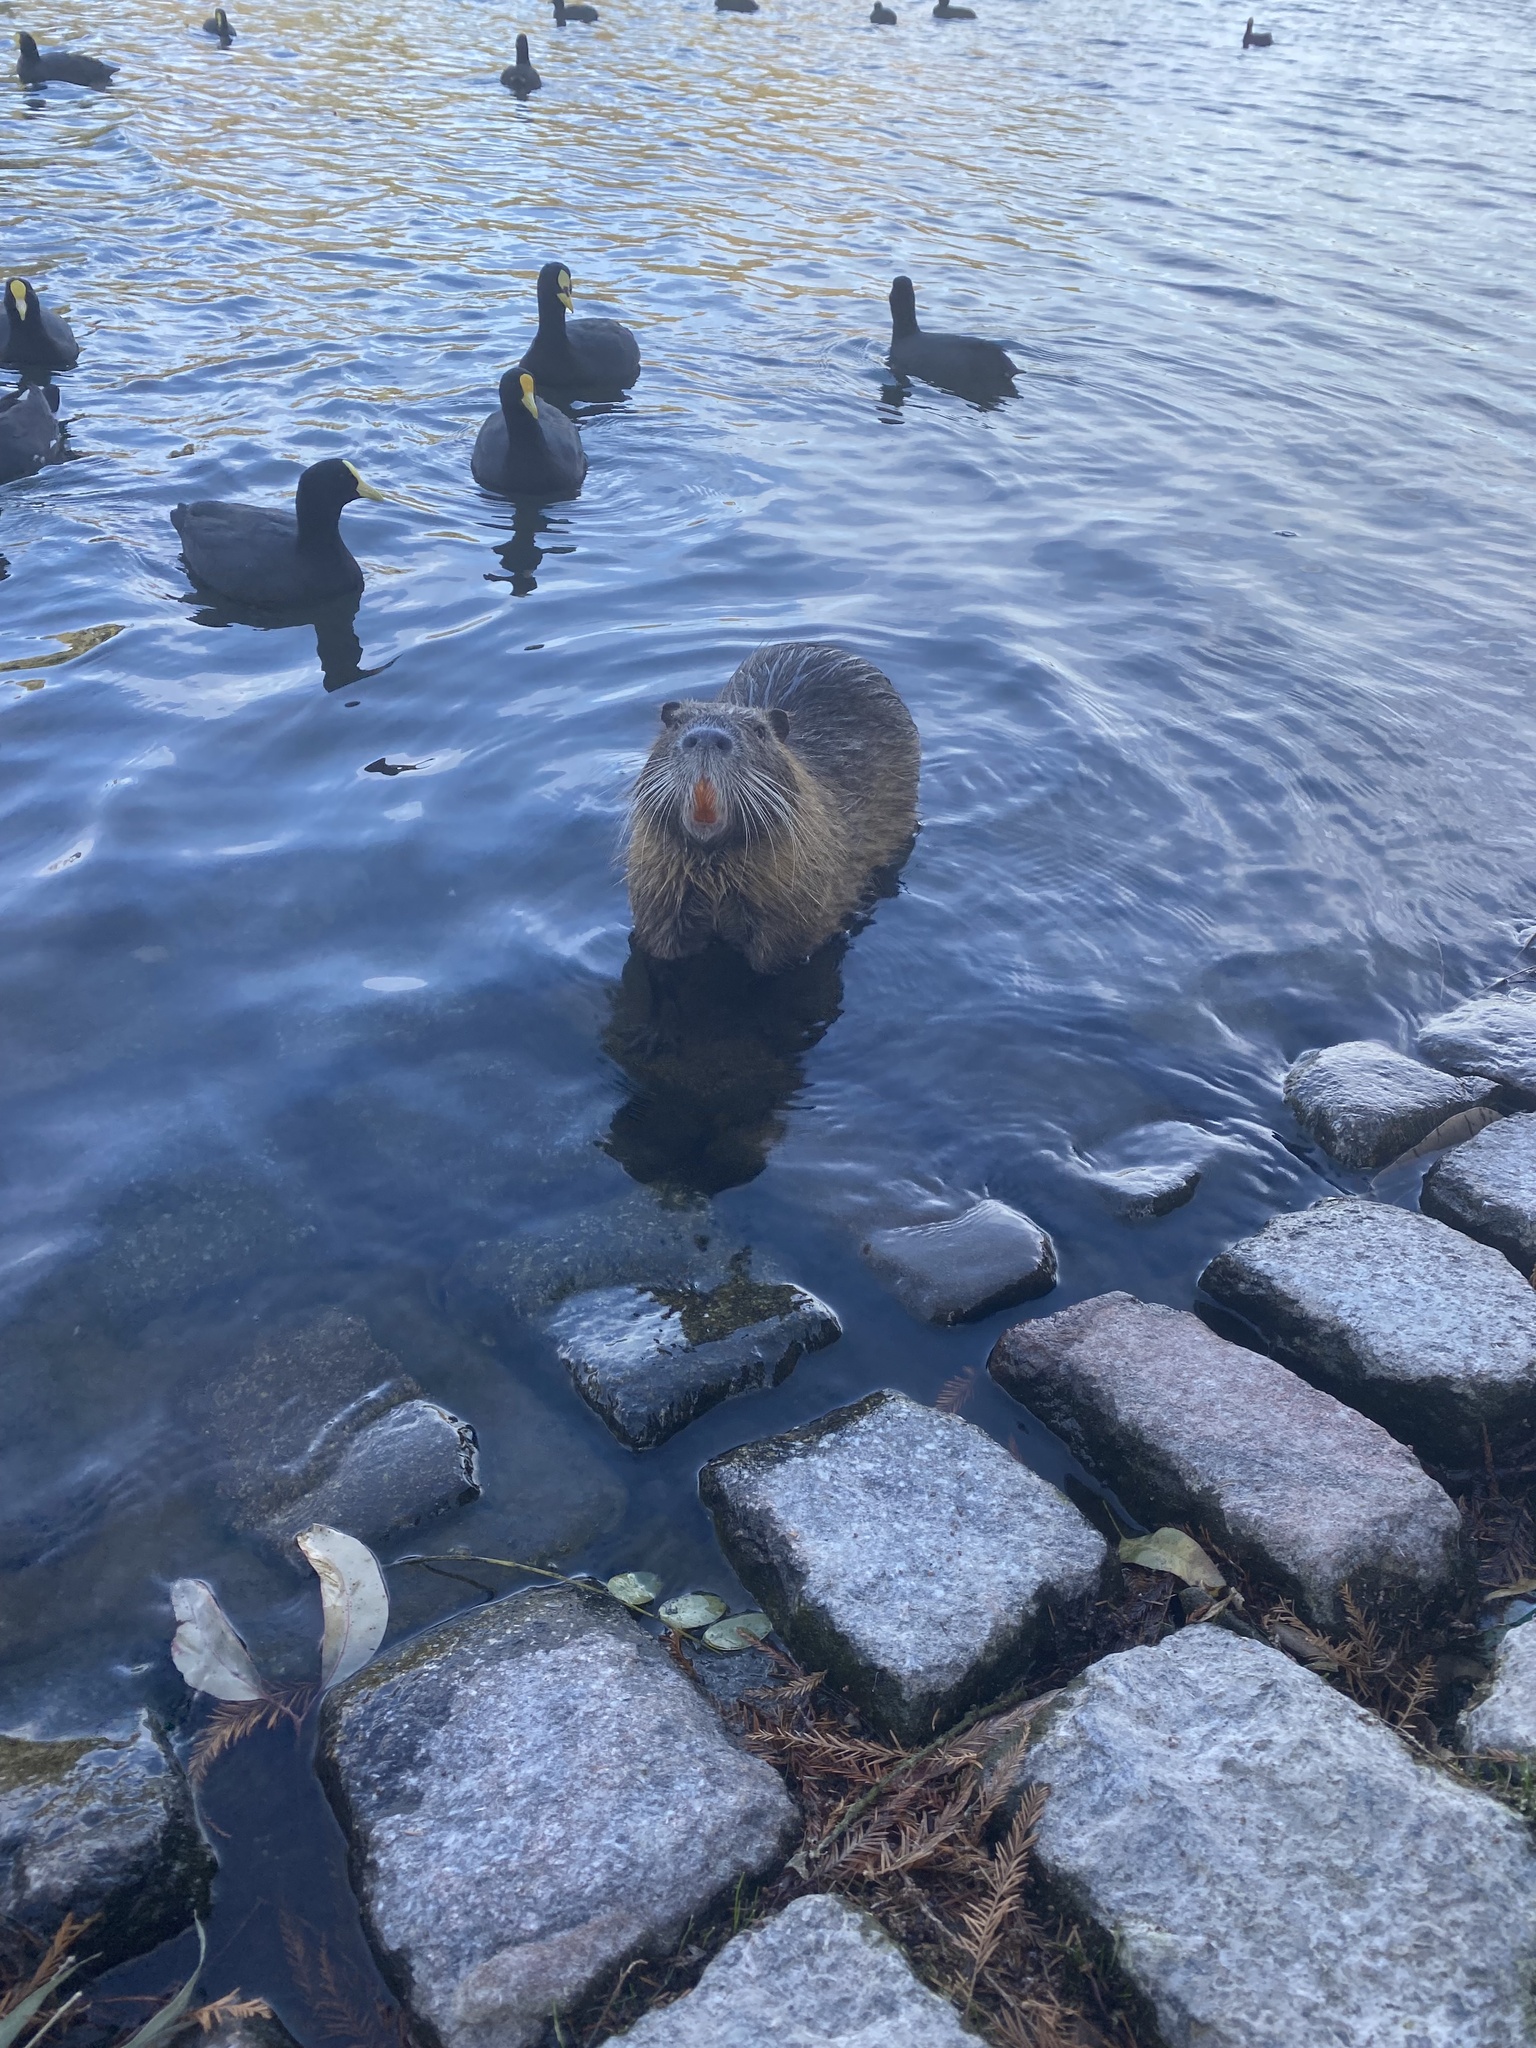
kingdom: Animalia
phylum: Chordata
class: Mammalia
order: Rodentia
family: Myocastoridae
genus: Myocastor
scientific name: Myocastor coypus
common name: Coypu
